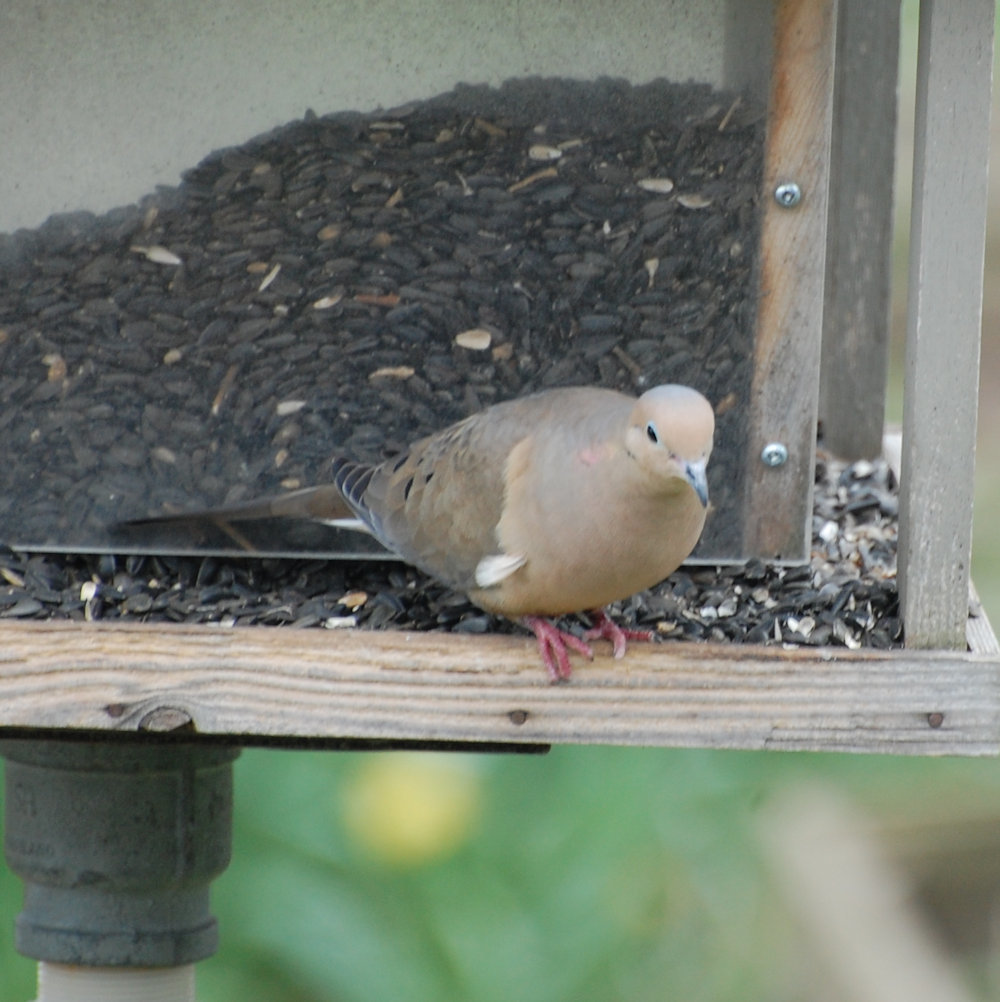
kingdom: Animalia
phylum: Chordata
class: Aves
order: Columbiformes
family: Columbidae
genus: Zenaida
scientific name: Zenaida macroura
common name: Mourning dove
